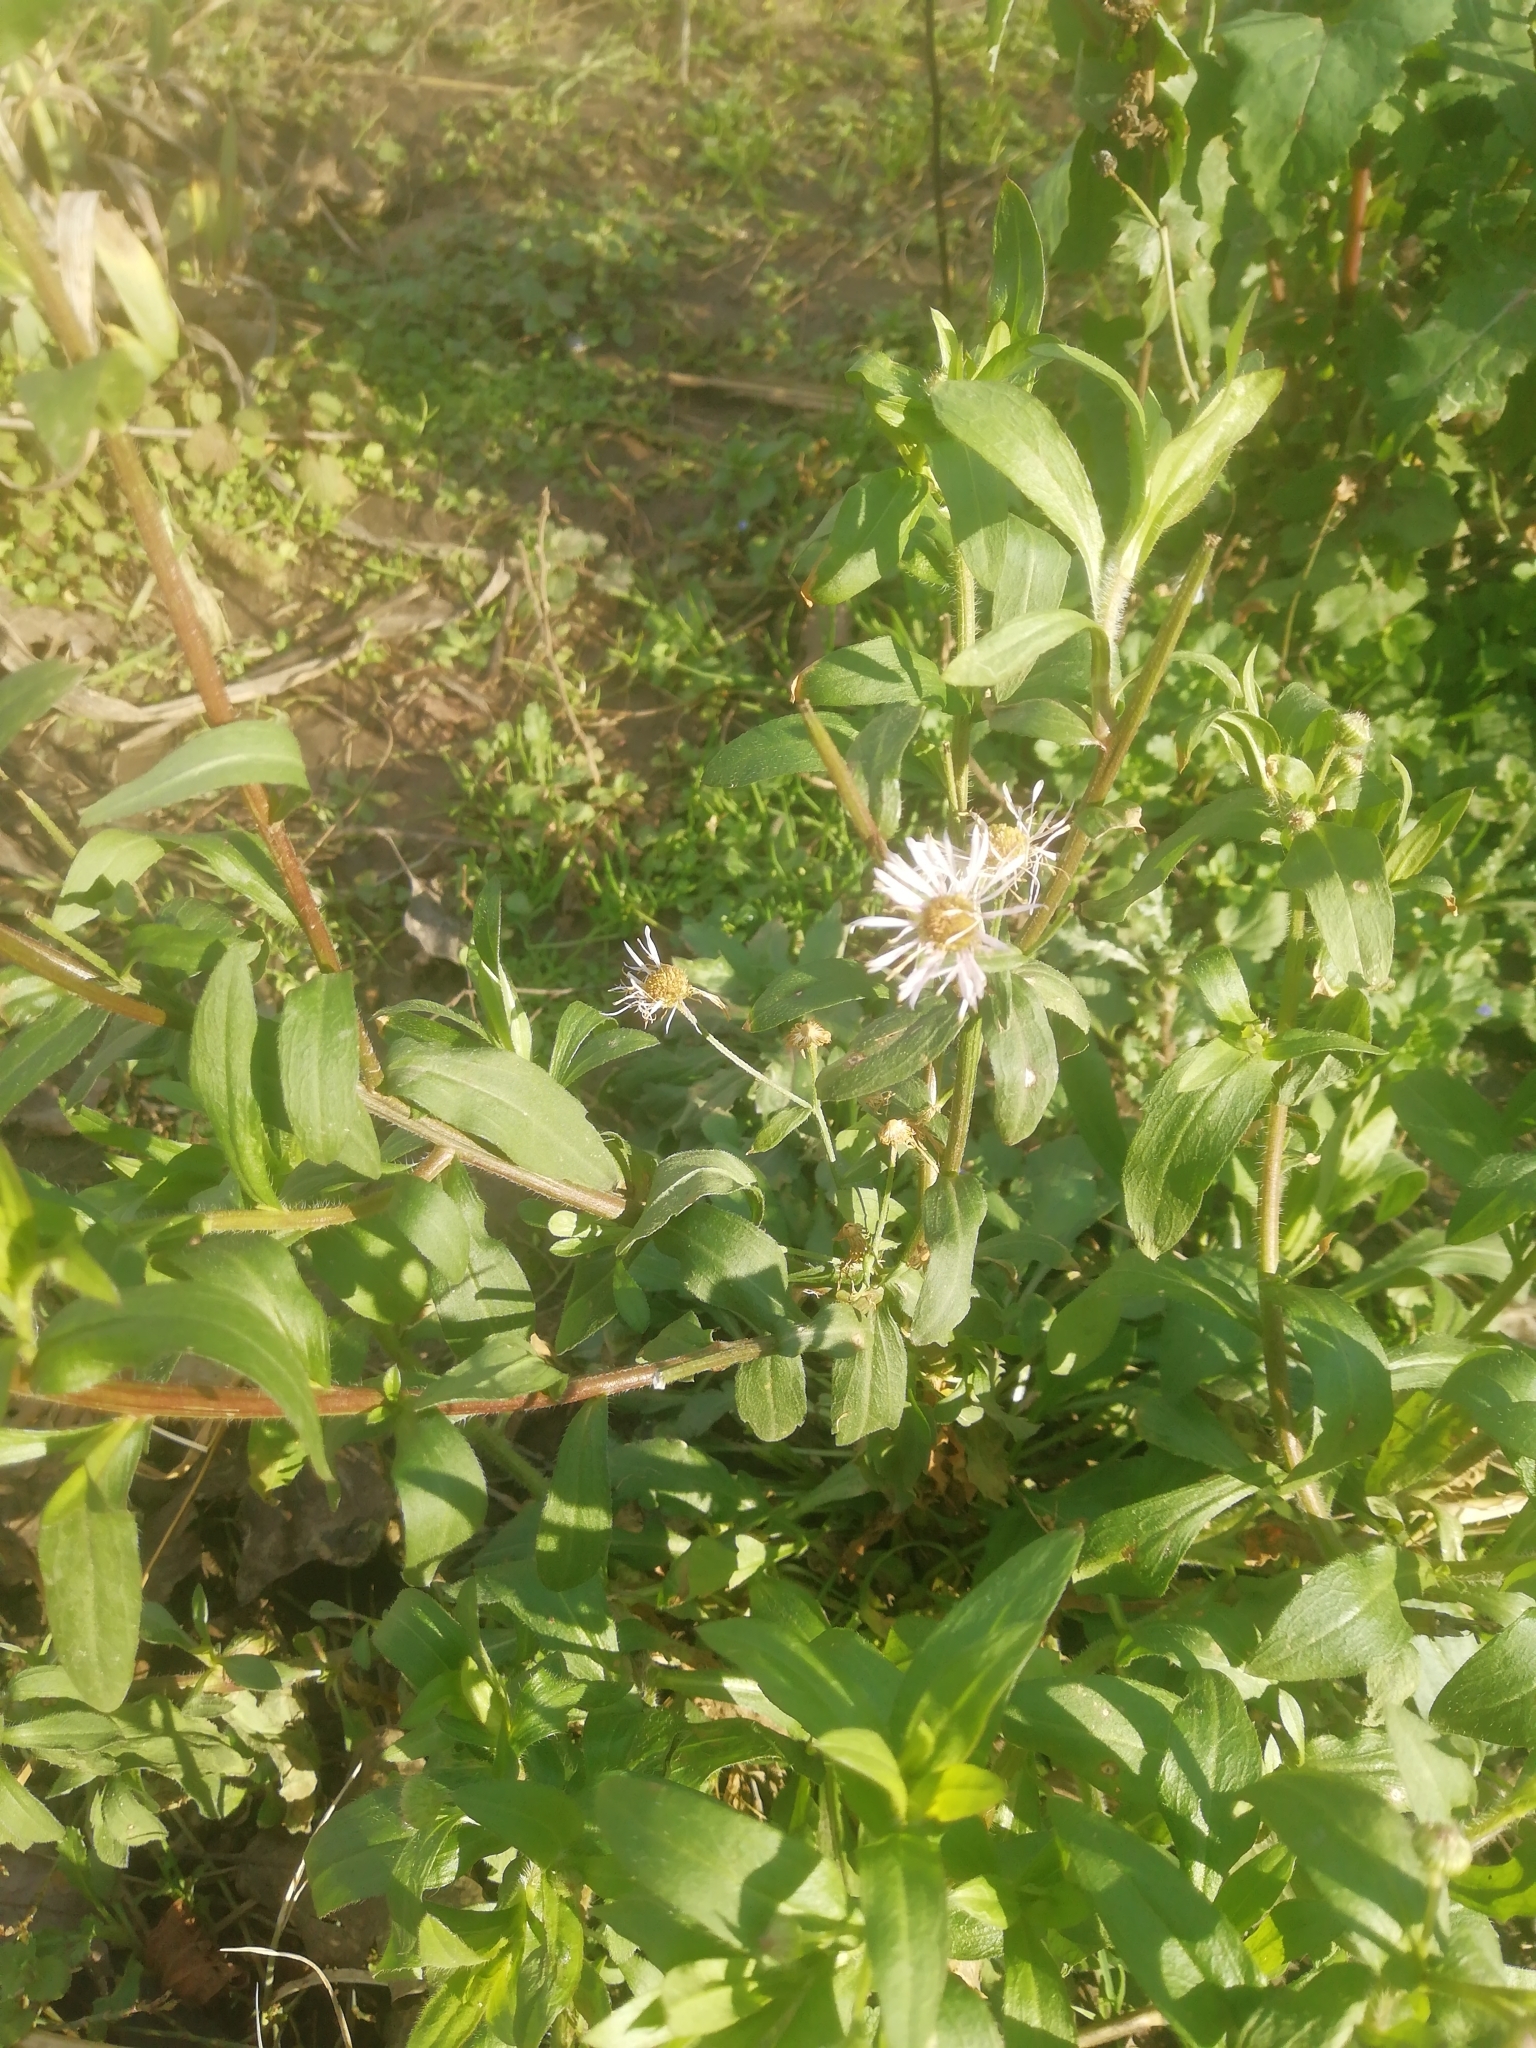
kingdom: Plantae
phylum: Tracheophyta
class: Magnoliopsida
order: Asterales
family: Asteraceae
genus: Erigeron
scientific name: Erigeron annuus
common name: Tall fleabane
